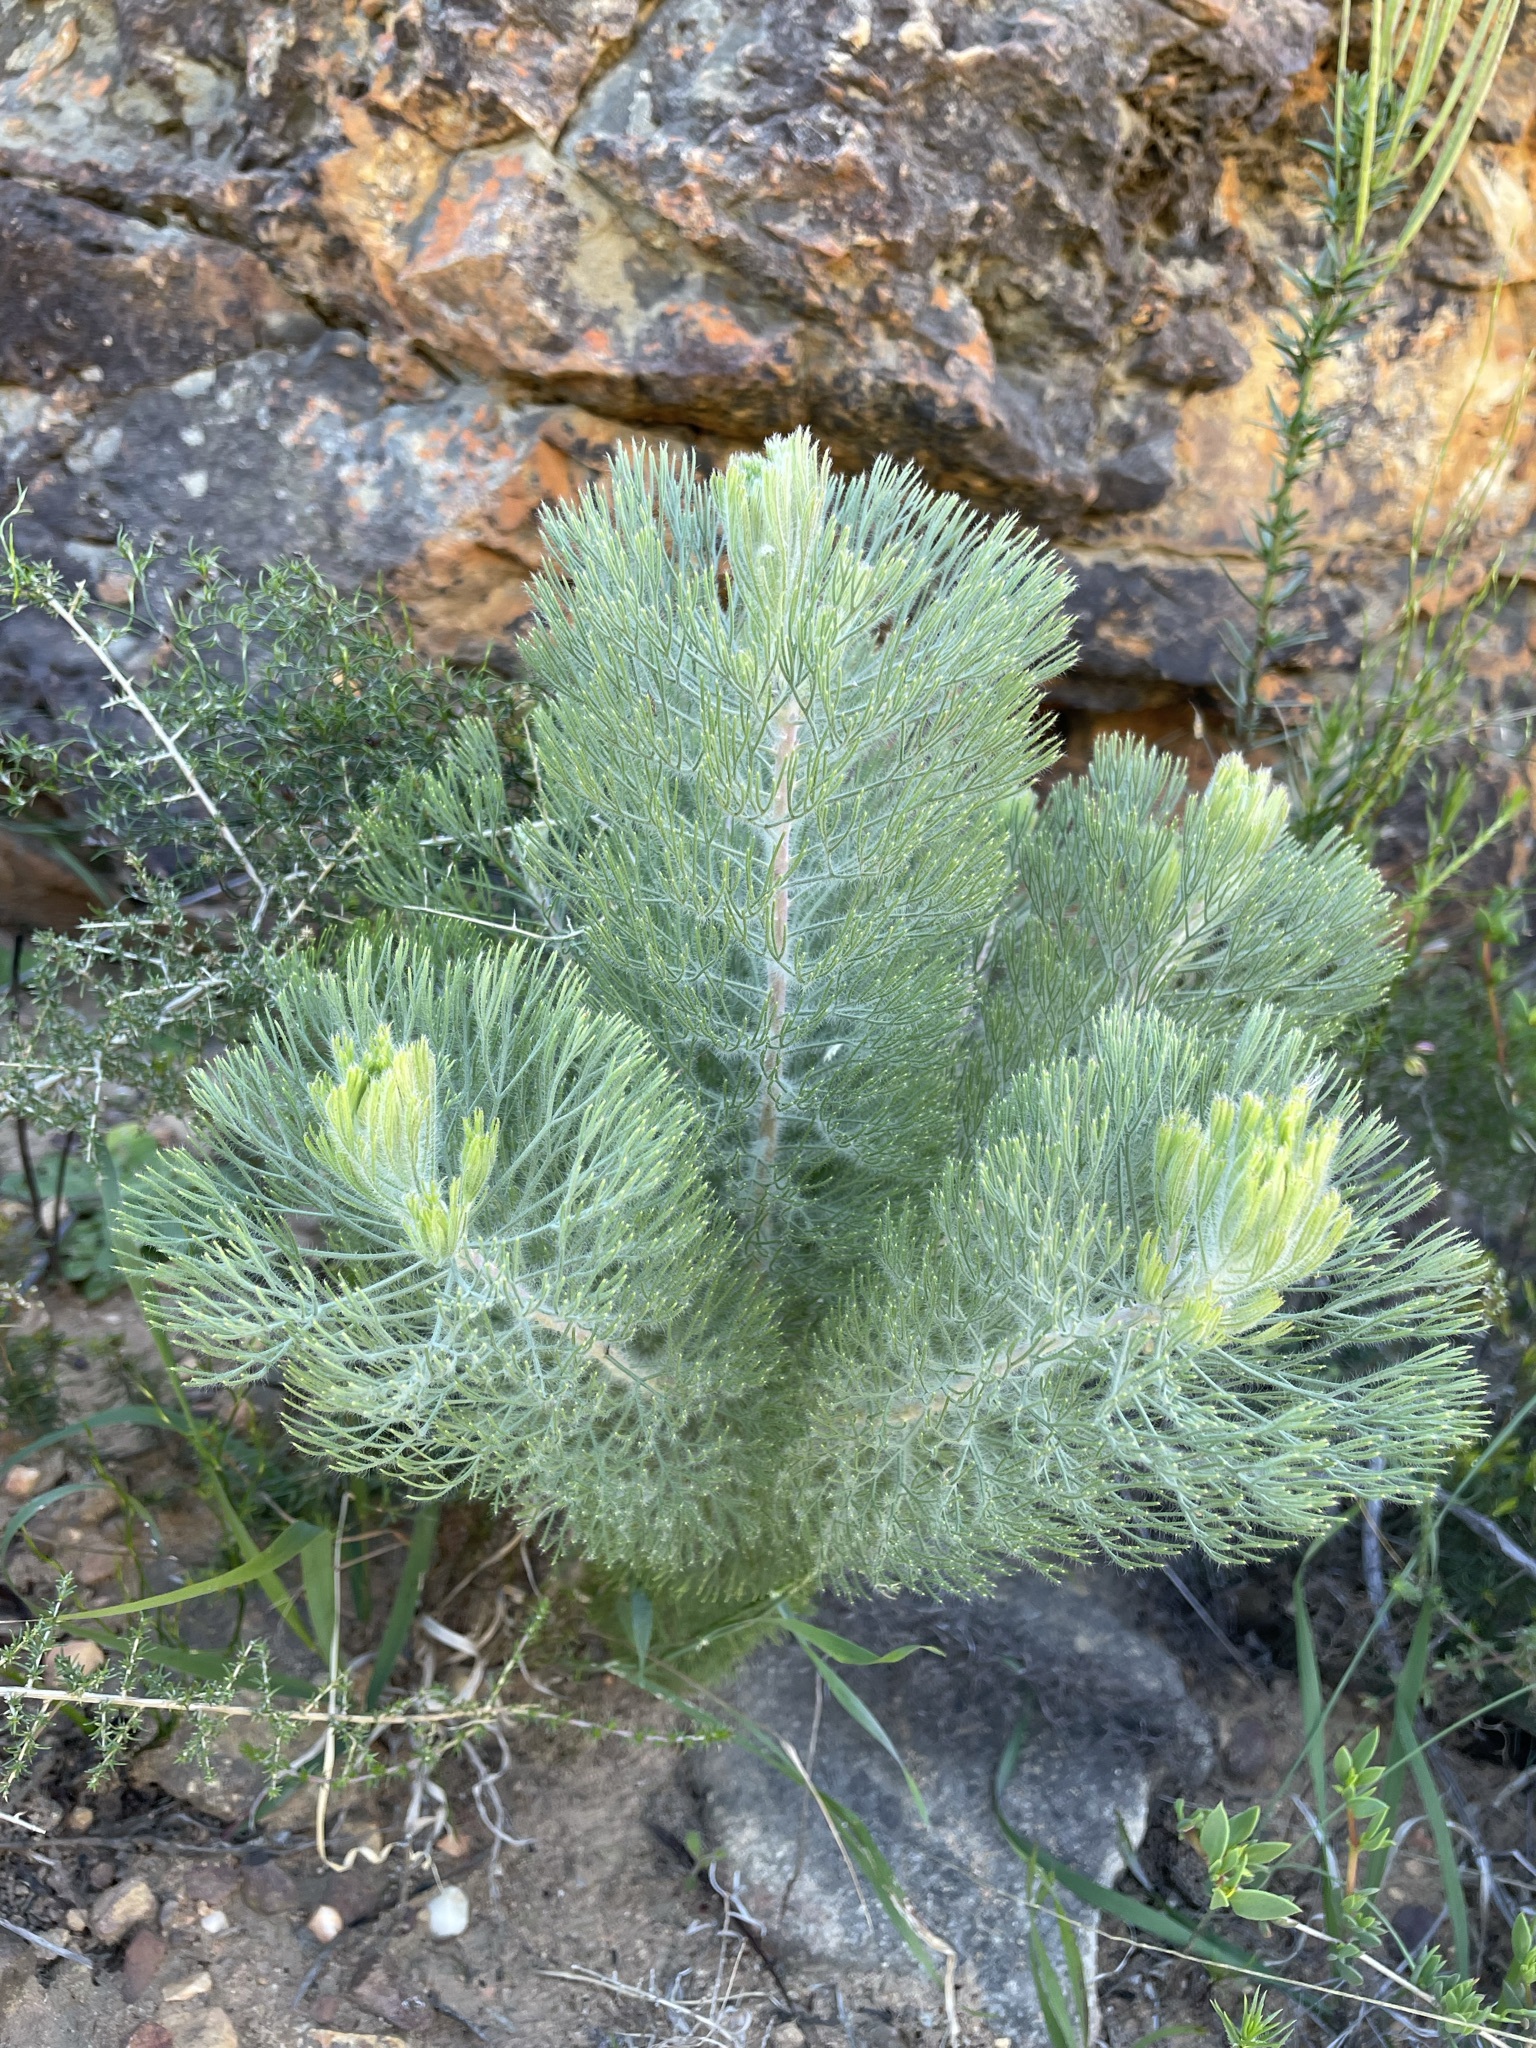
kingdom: Plantae
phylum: Tracheophyta
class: Magnoliopsida
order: Proteales
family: Proteaceae
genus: Paranomus
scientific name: Paranomus bracteolaris
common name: Bokkeveld tree sceptre
